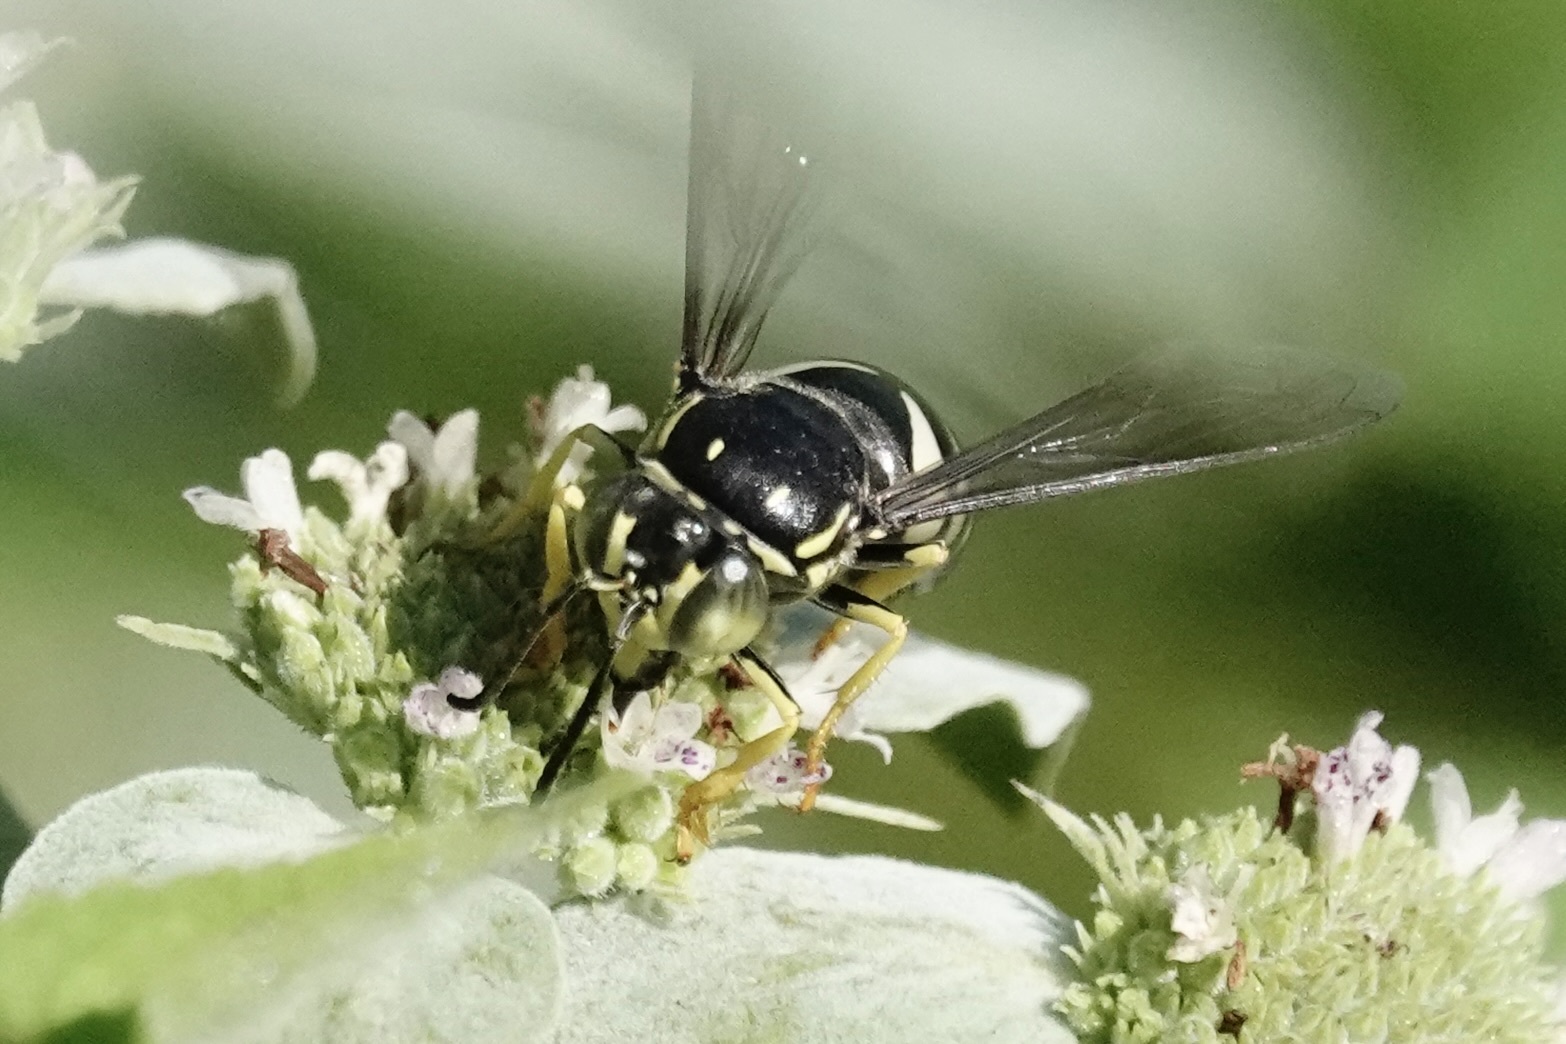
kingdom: Animalia
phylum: Arthropoda
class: Insecta
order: Hymenoptera
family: Crabronidae
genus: Bicyrtes
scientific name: Bicyrtes quadrifasciatus
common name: Four-banded stink bug hunter wasp
